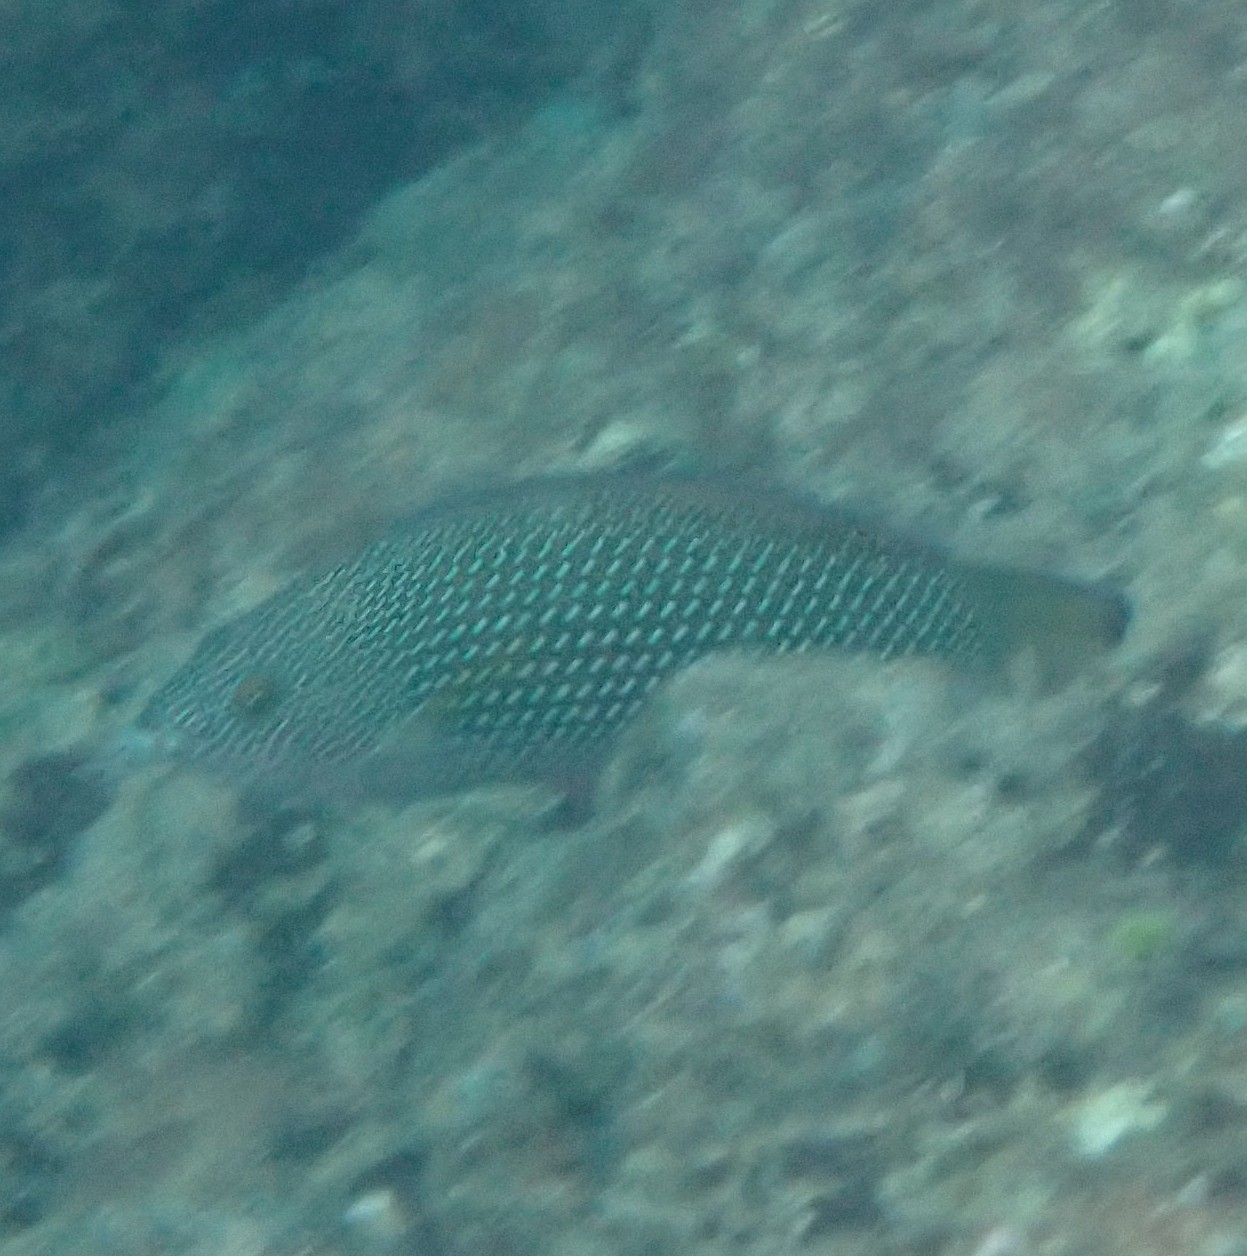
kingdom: Animalia
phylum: Chordata
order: Perciformes
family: Labridae
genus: Anampses
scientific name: Anampses cuvier
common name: Pearl wrasse
